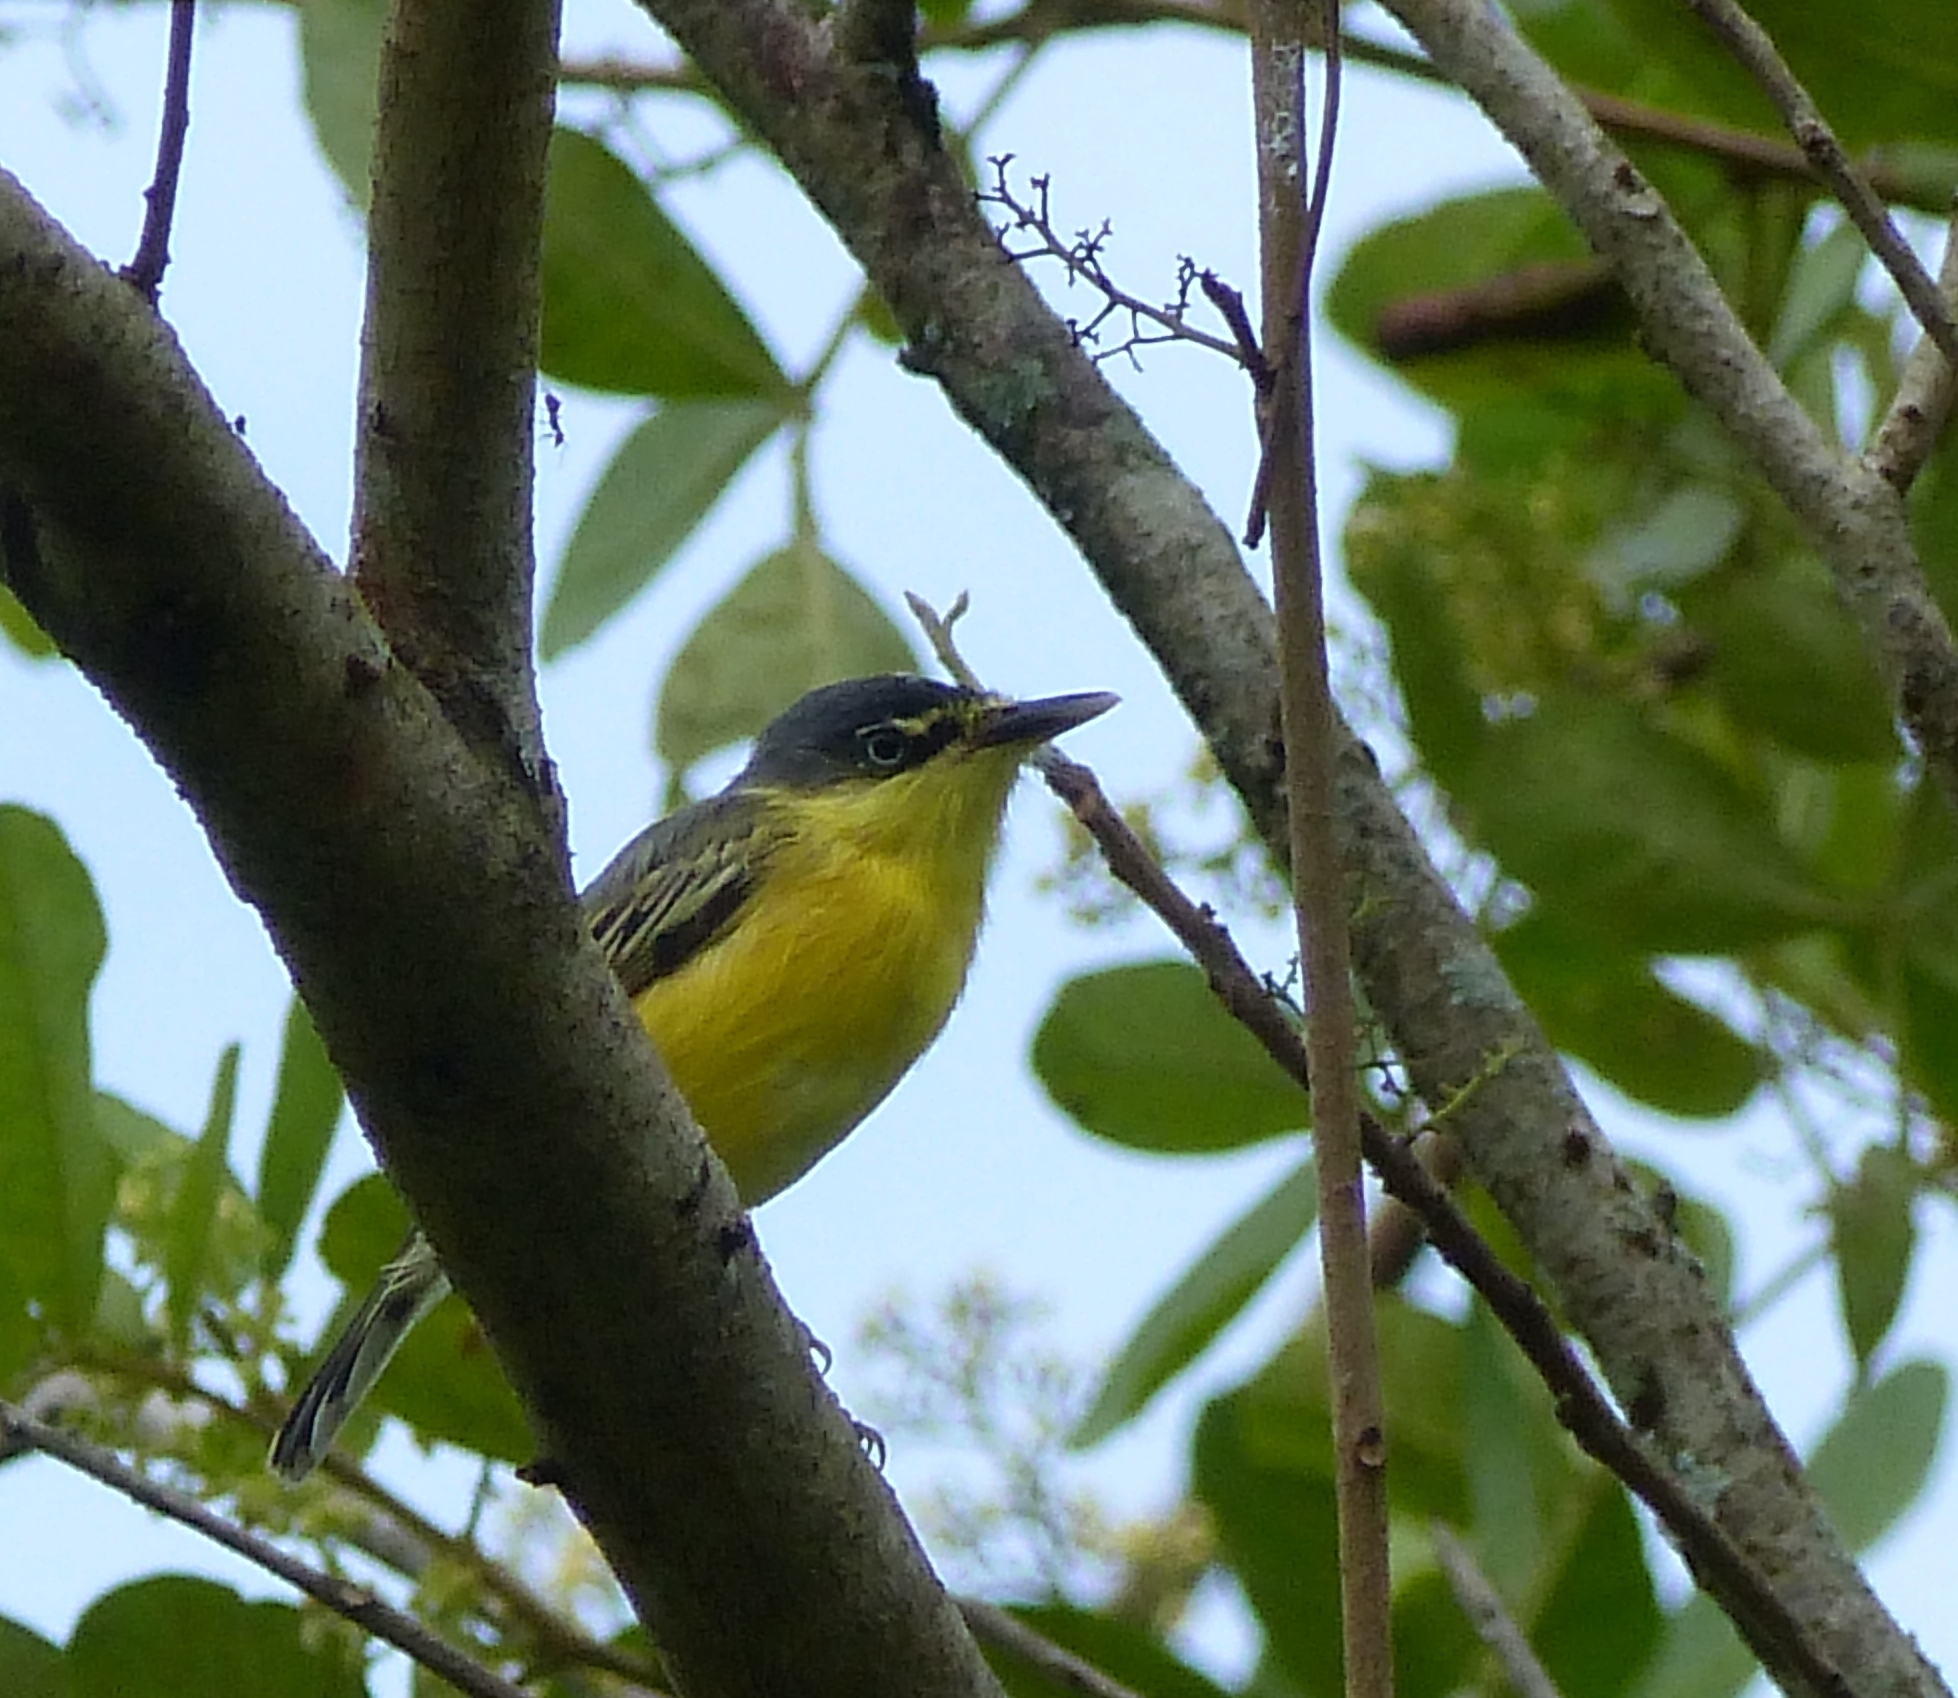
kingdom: Animalia
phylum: Chordata
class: Aves
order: Passeriformes
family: Tyrannidae
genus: Todirostrum
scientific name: Todirostrum cinereum
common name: Common tody-flycatcher
